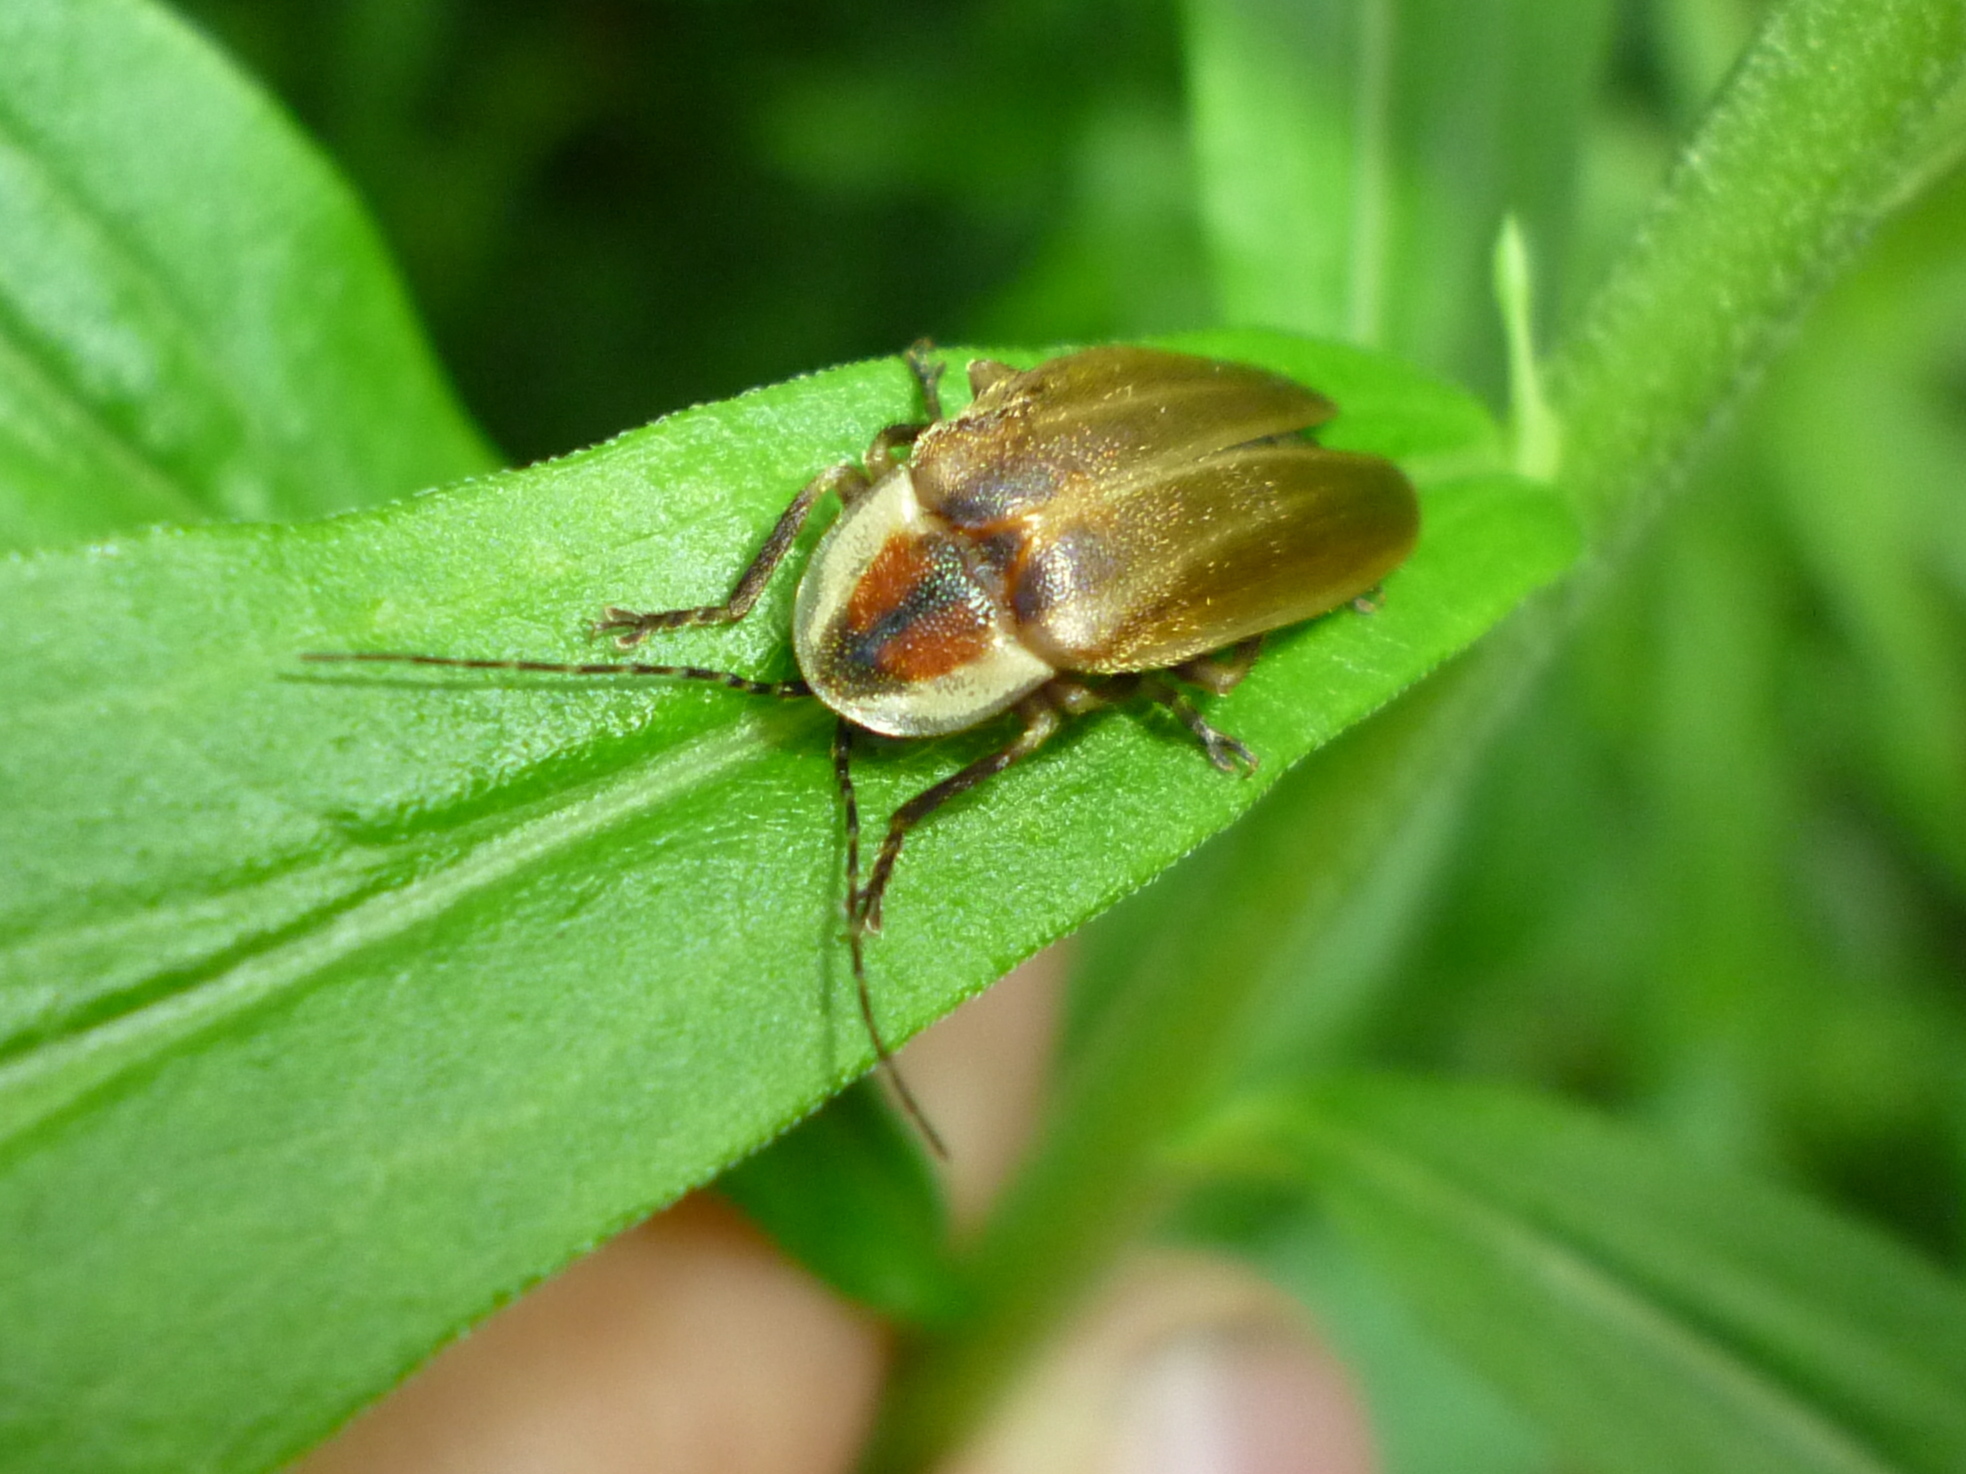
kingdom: Animalia
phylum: Arthropoda
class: Insecta
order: Coleoptera
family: Lampyridae
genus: Photuris
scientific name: Photuris
